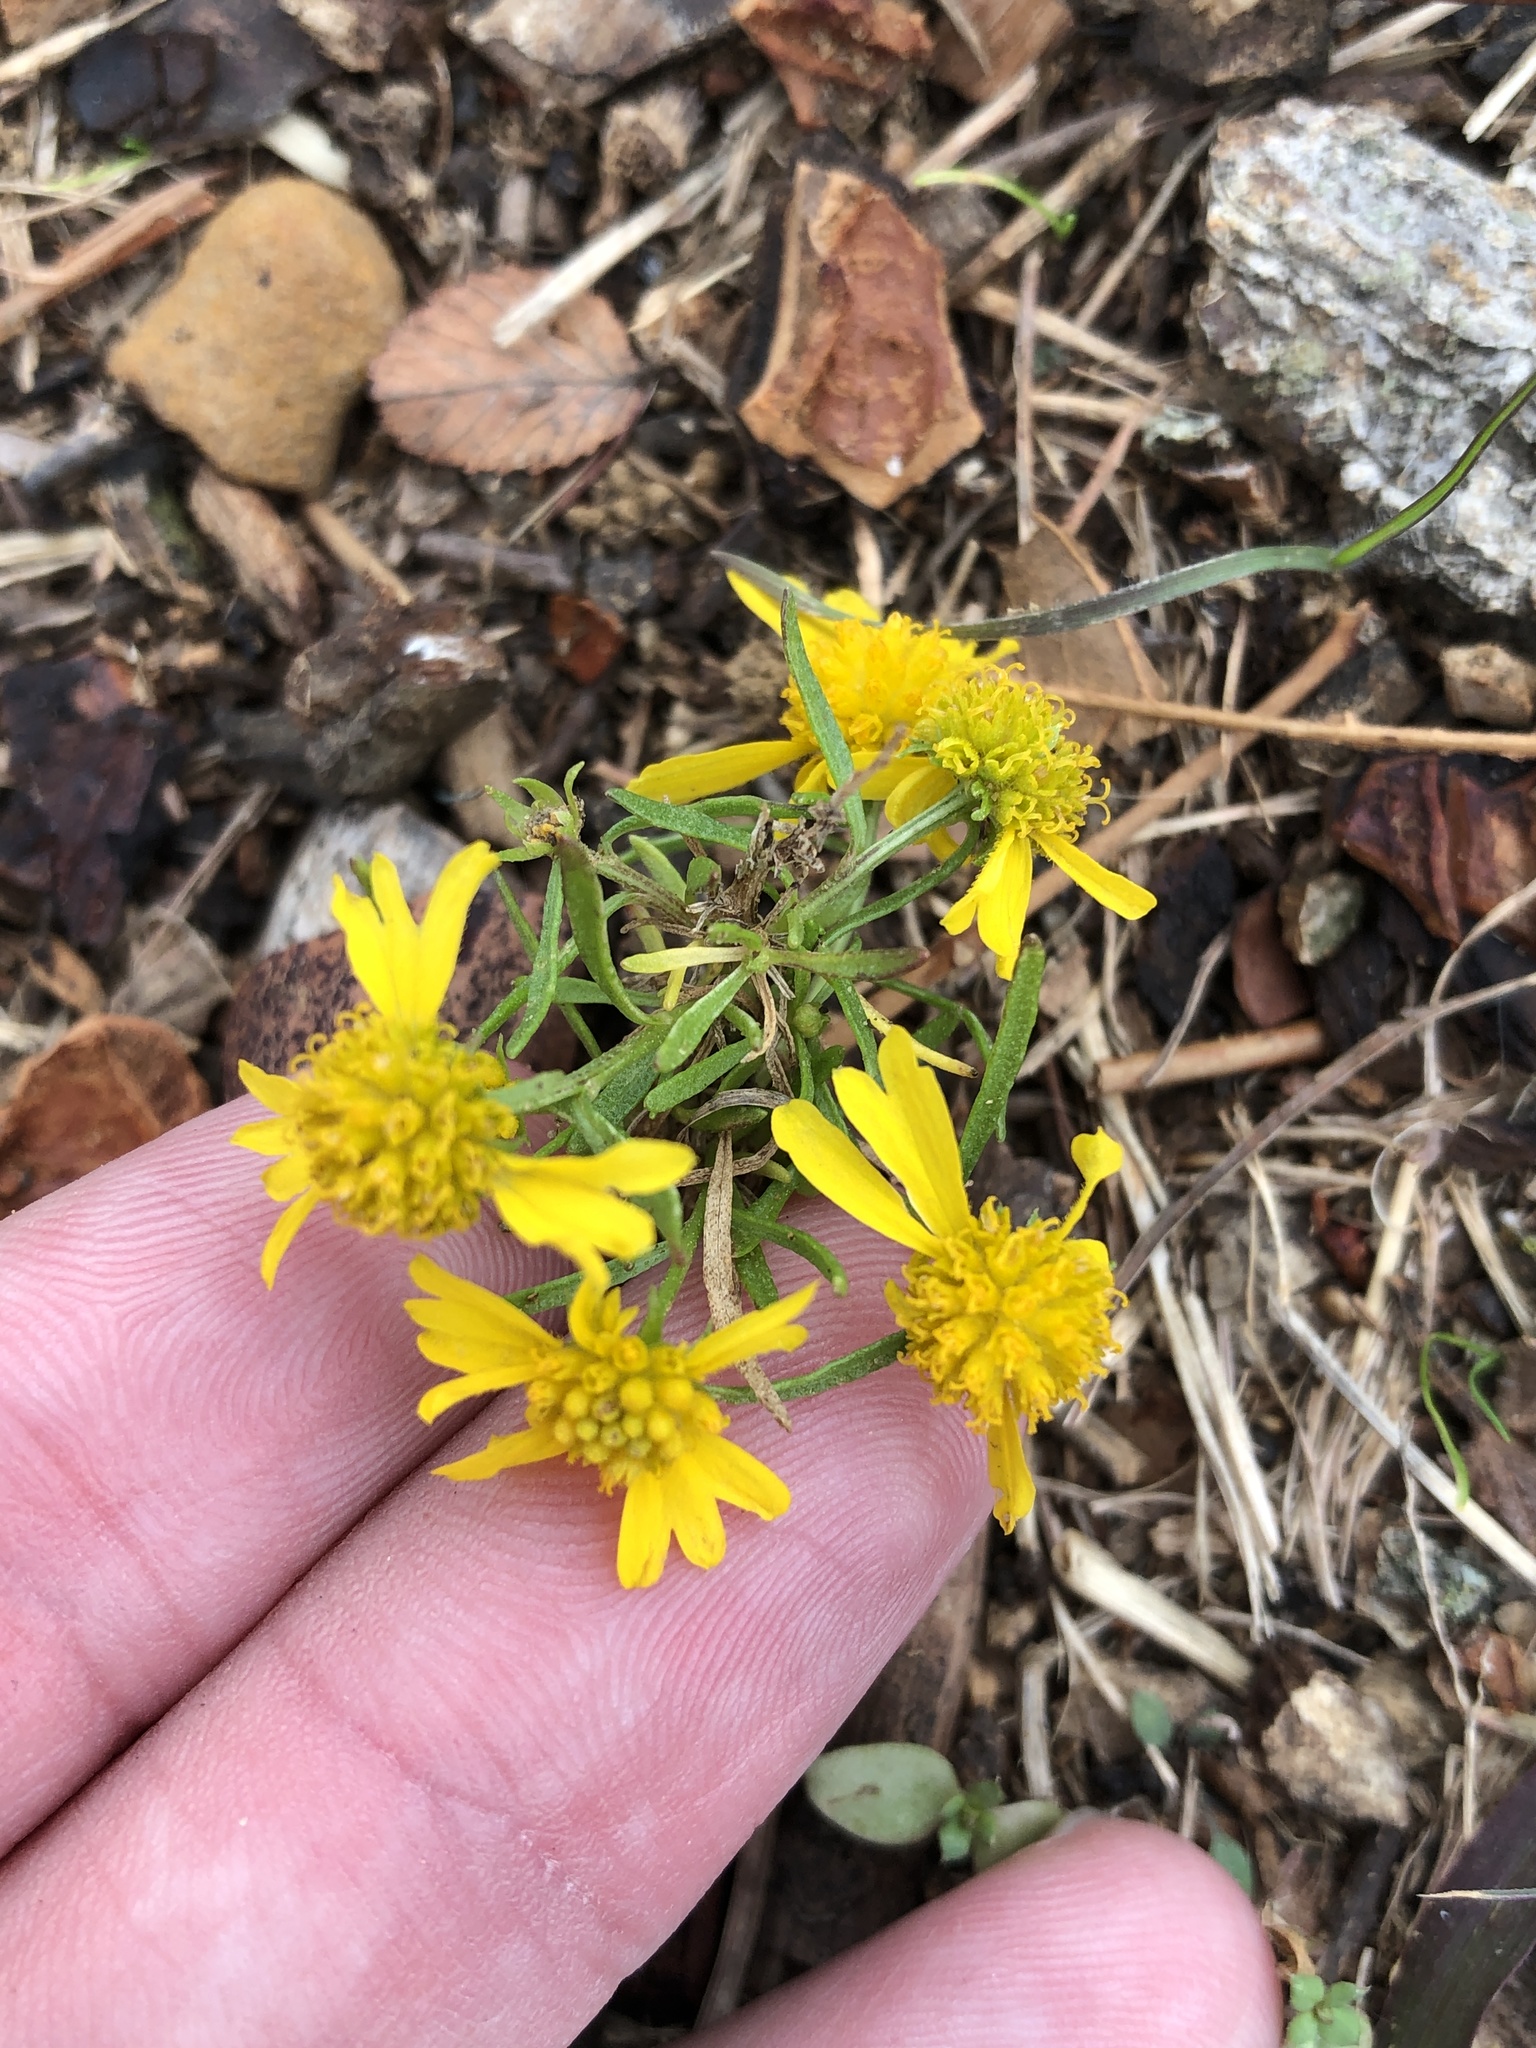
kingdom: Plantae
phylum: Tracheophyta
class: Magnoliopsida
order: Asterales
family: Asteraceae
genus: Helenium
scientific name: Helenium amarum
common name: Bitter sneezeweed
